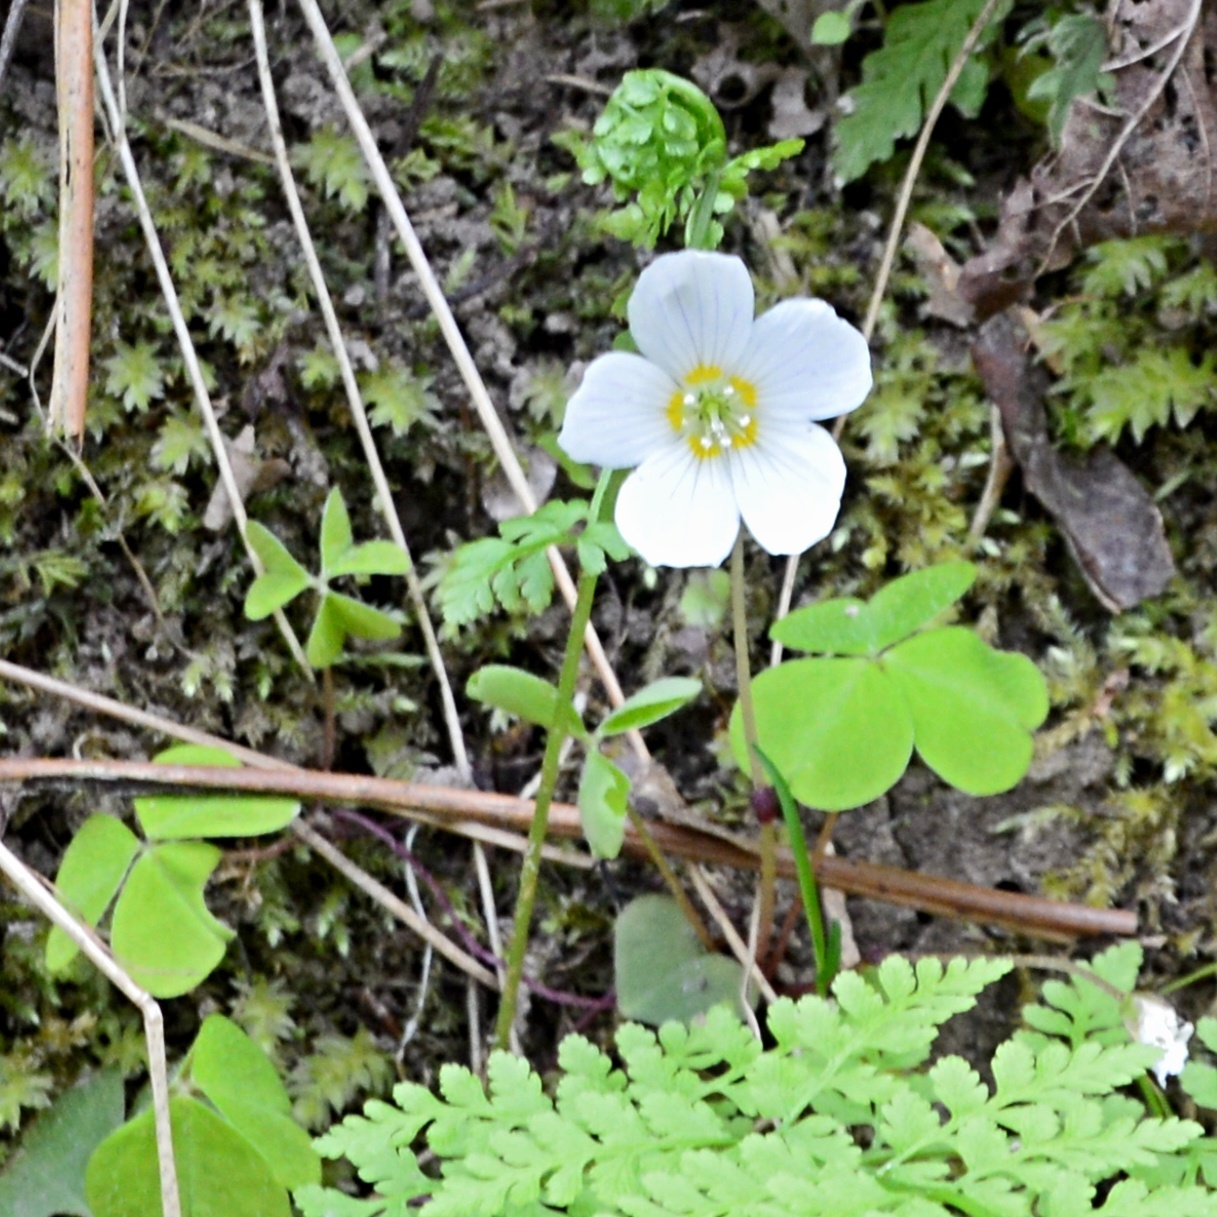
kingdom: Plantae
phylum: Tracheophyta
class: Magnoliopsida
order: Oxalidales
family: Oxalidaceae
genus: Oxalis
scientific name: Oxalis acetosella
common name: Wood-sorrel
